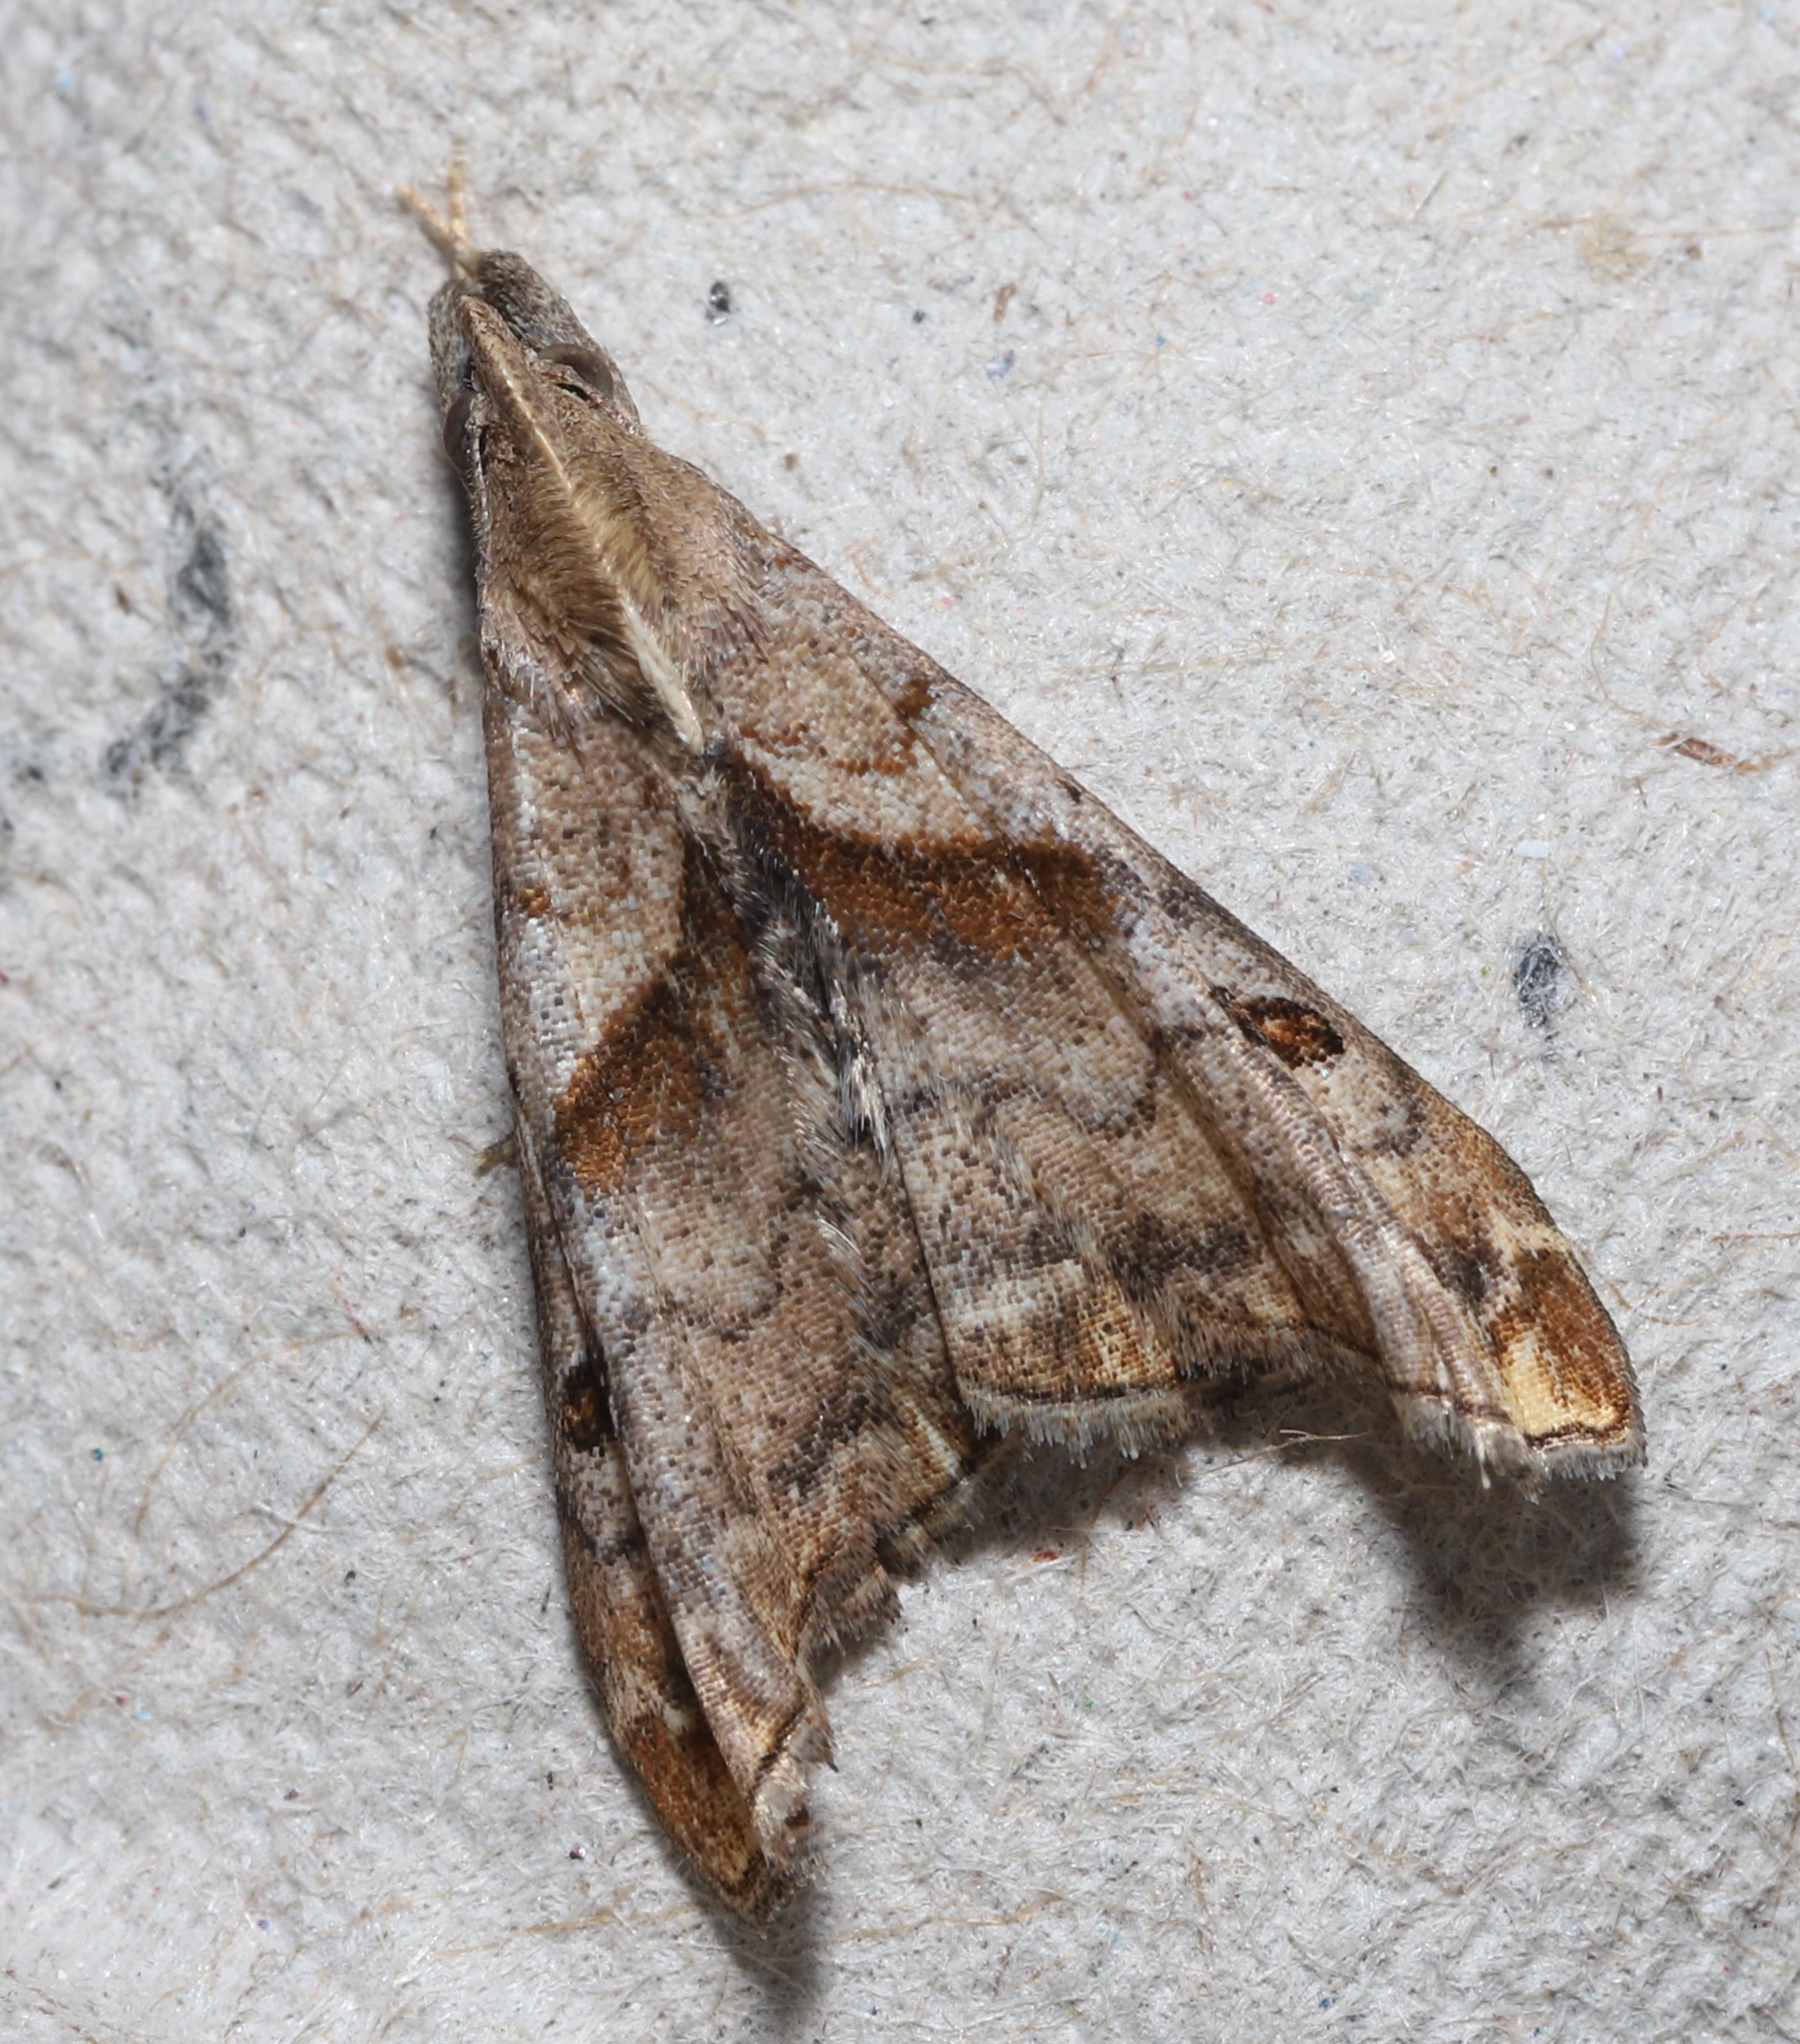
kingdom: Animalia
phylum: Arthropoda
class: Insecta
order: Lepidoptera
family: Erebidae
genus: Palthis
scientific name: Palthis angulalis
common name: Dark-spotted palthis moth
